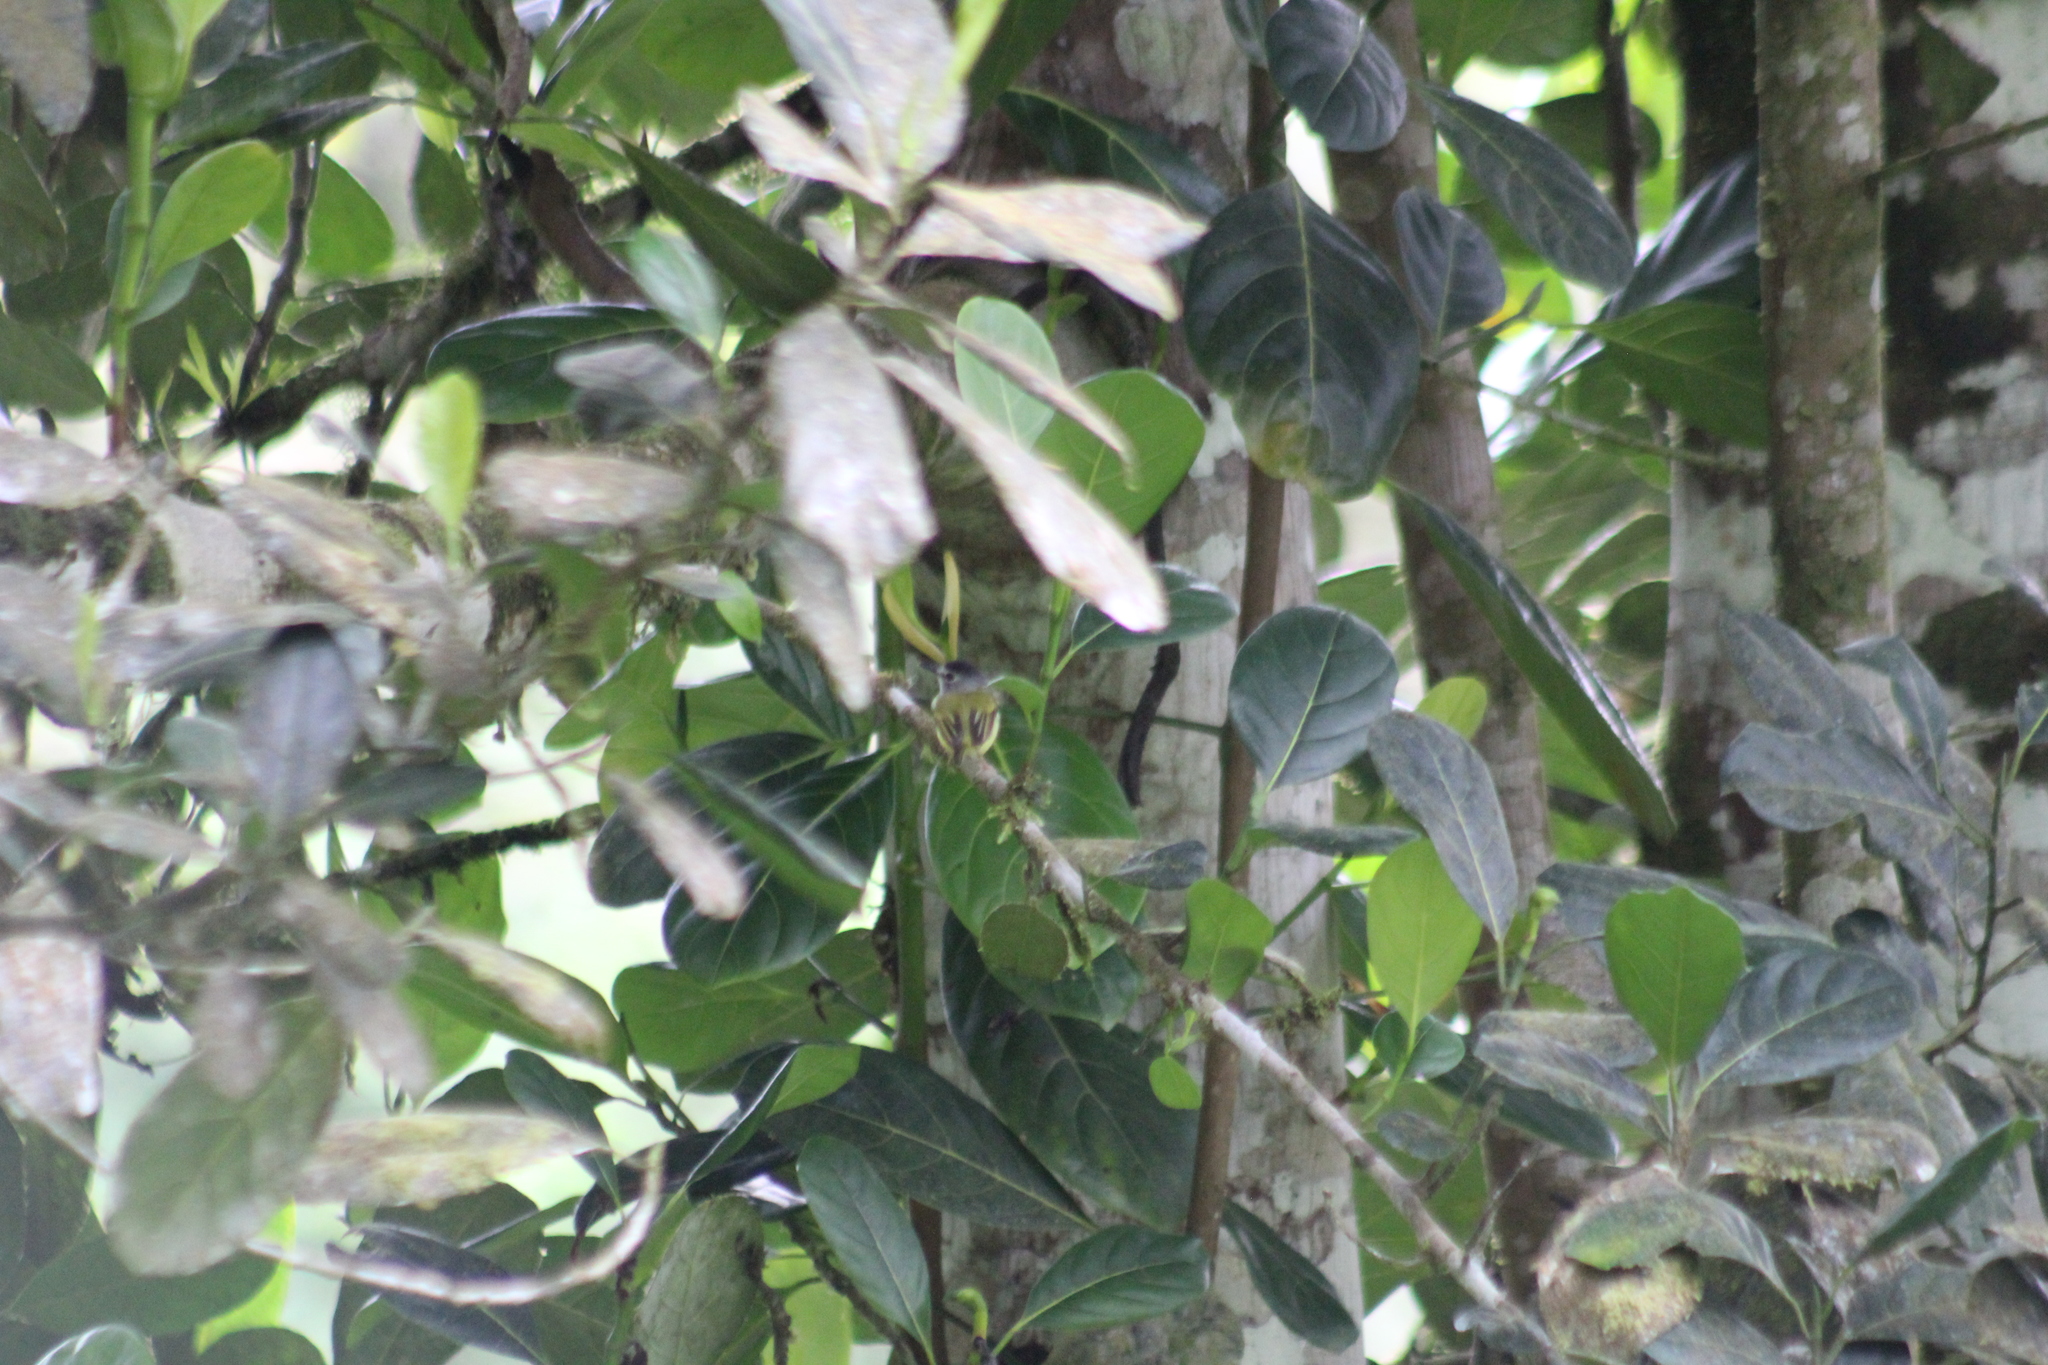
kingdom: Animalia
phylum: Chordata
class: Aves
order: Passeriformes
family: Tyrannidae
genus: Myiornis
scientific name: Myiornis atricapillus
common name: Black-capped pygmy-tyrant
